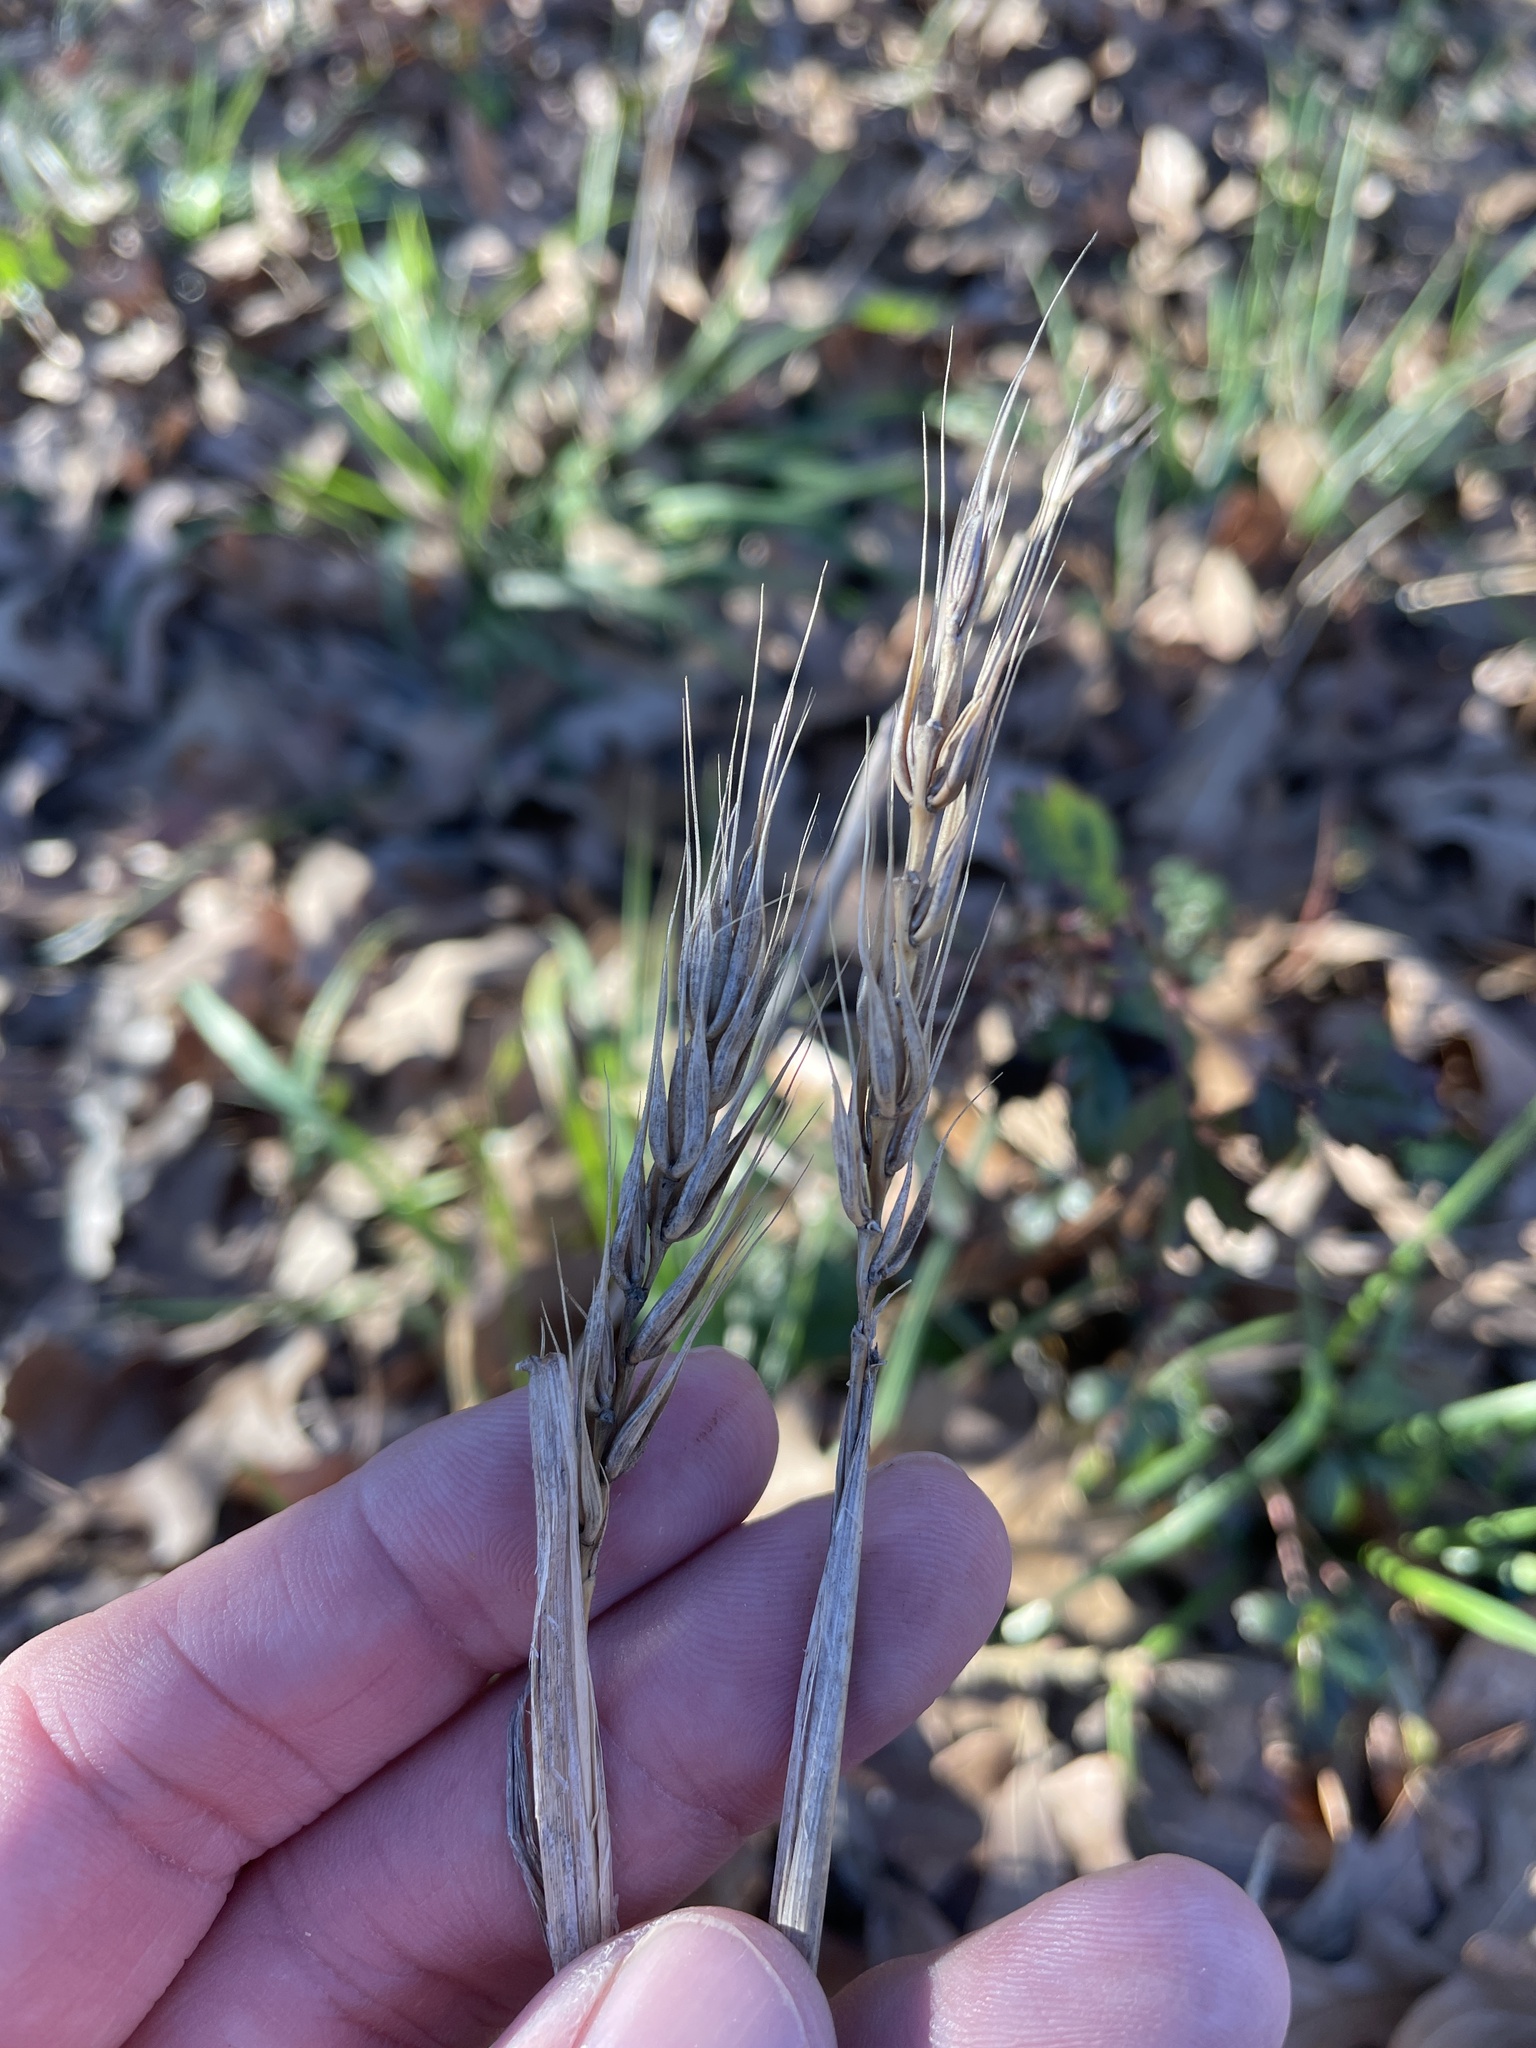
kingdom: Plantae
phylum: Tracheophyta
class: Liliopsida
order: Poales
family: Poaceae
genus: Elymus
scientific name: Elymus virginicus
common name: Common eastern wildrye
